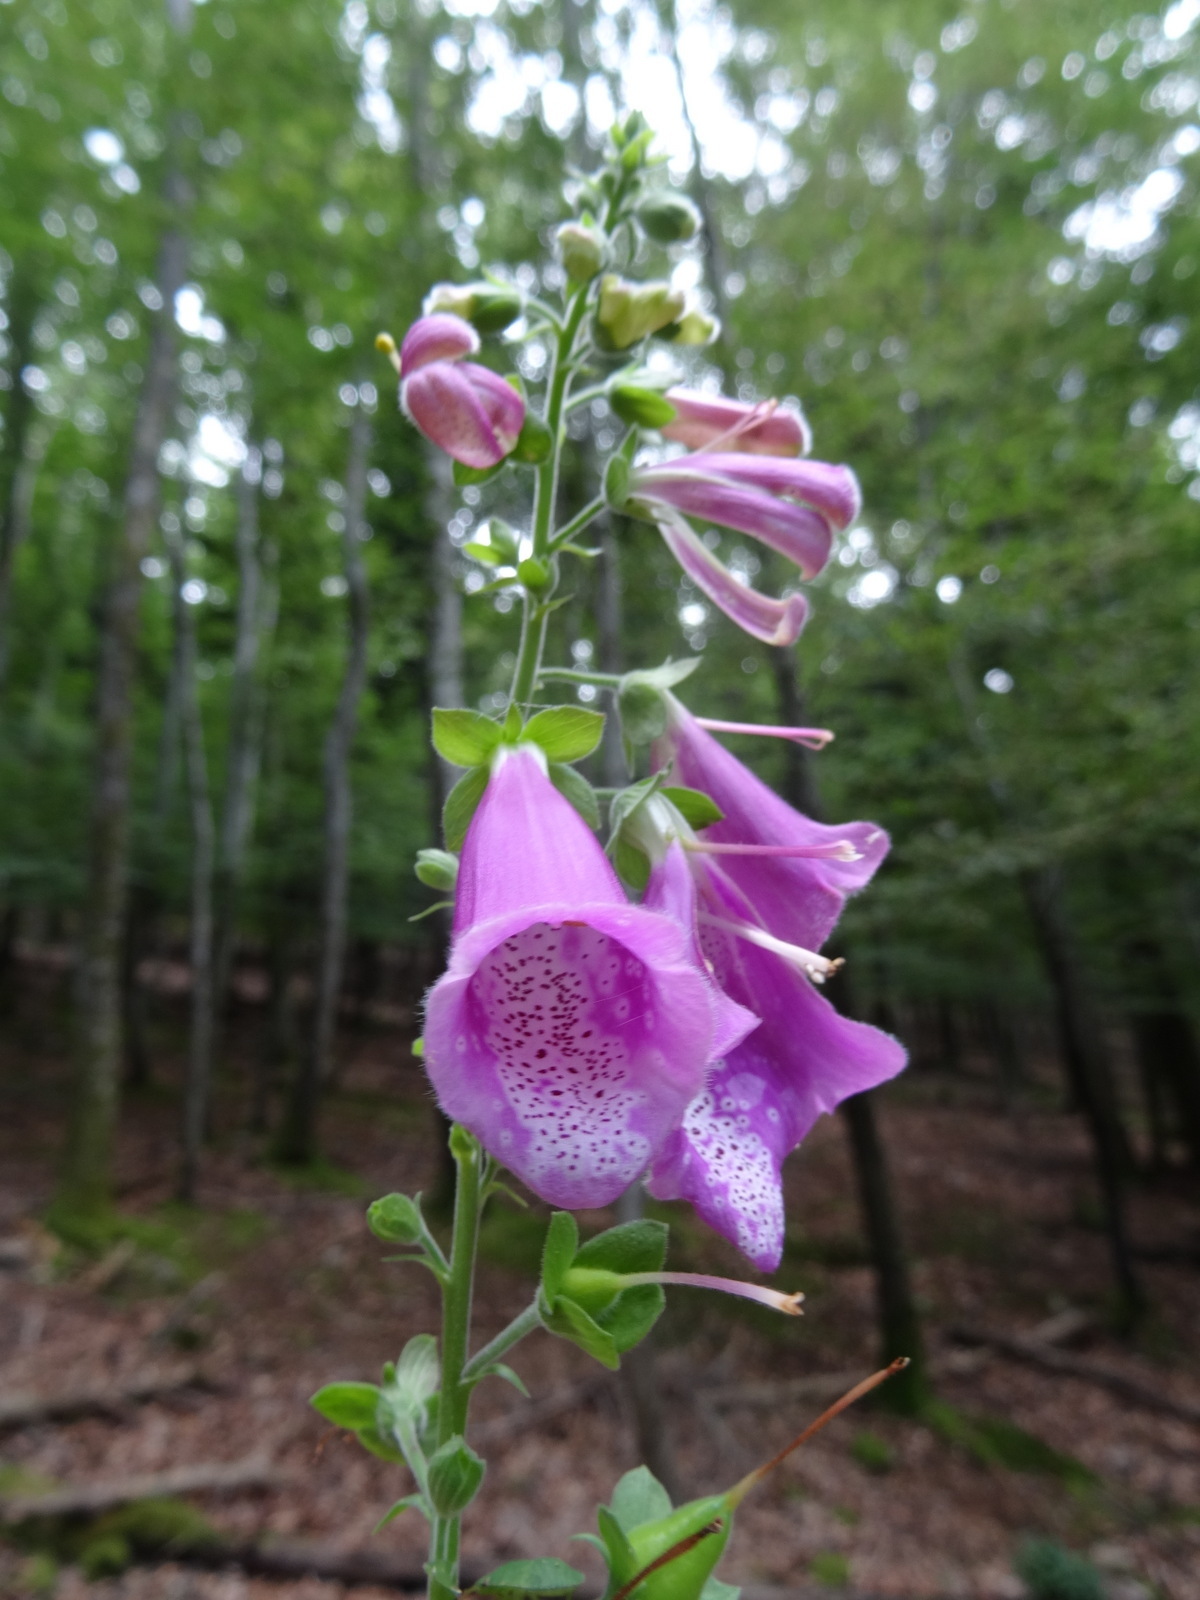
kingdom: Plantae
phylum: Tracheophyta
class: Magnoliopsida
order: Lamiales
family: Plantaginaceae
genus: Digitalis
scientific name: Digitalis purpurea
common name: Foxglove
